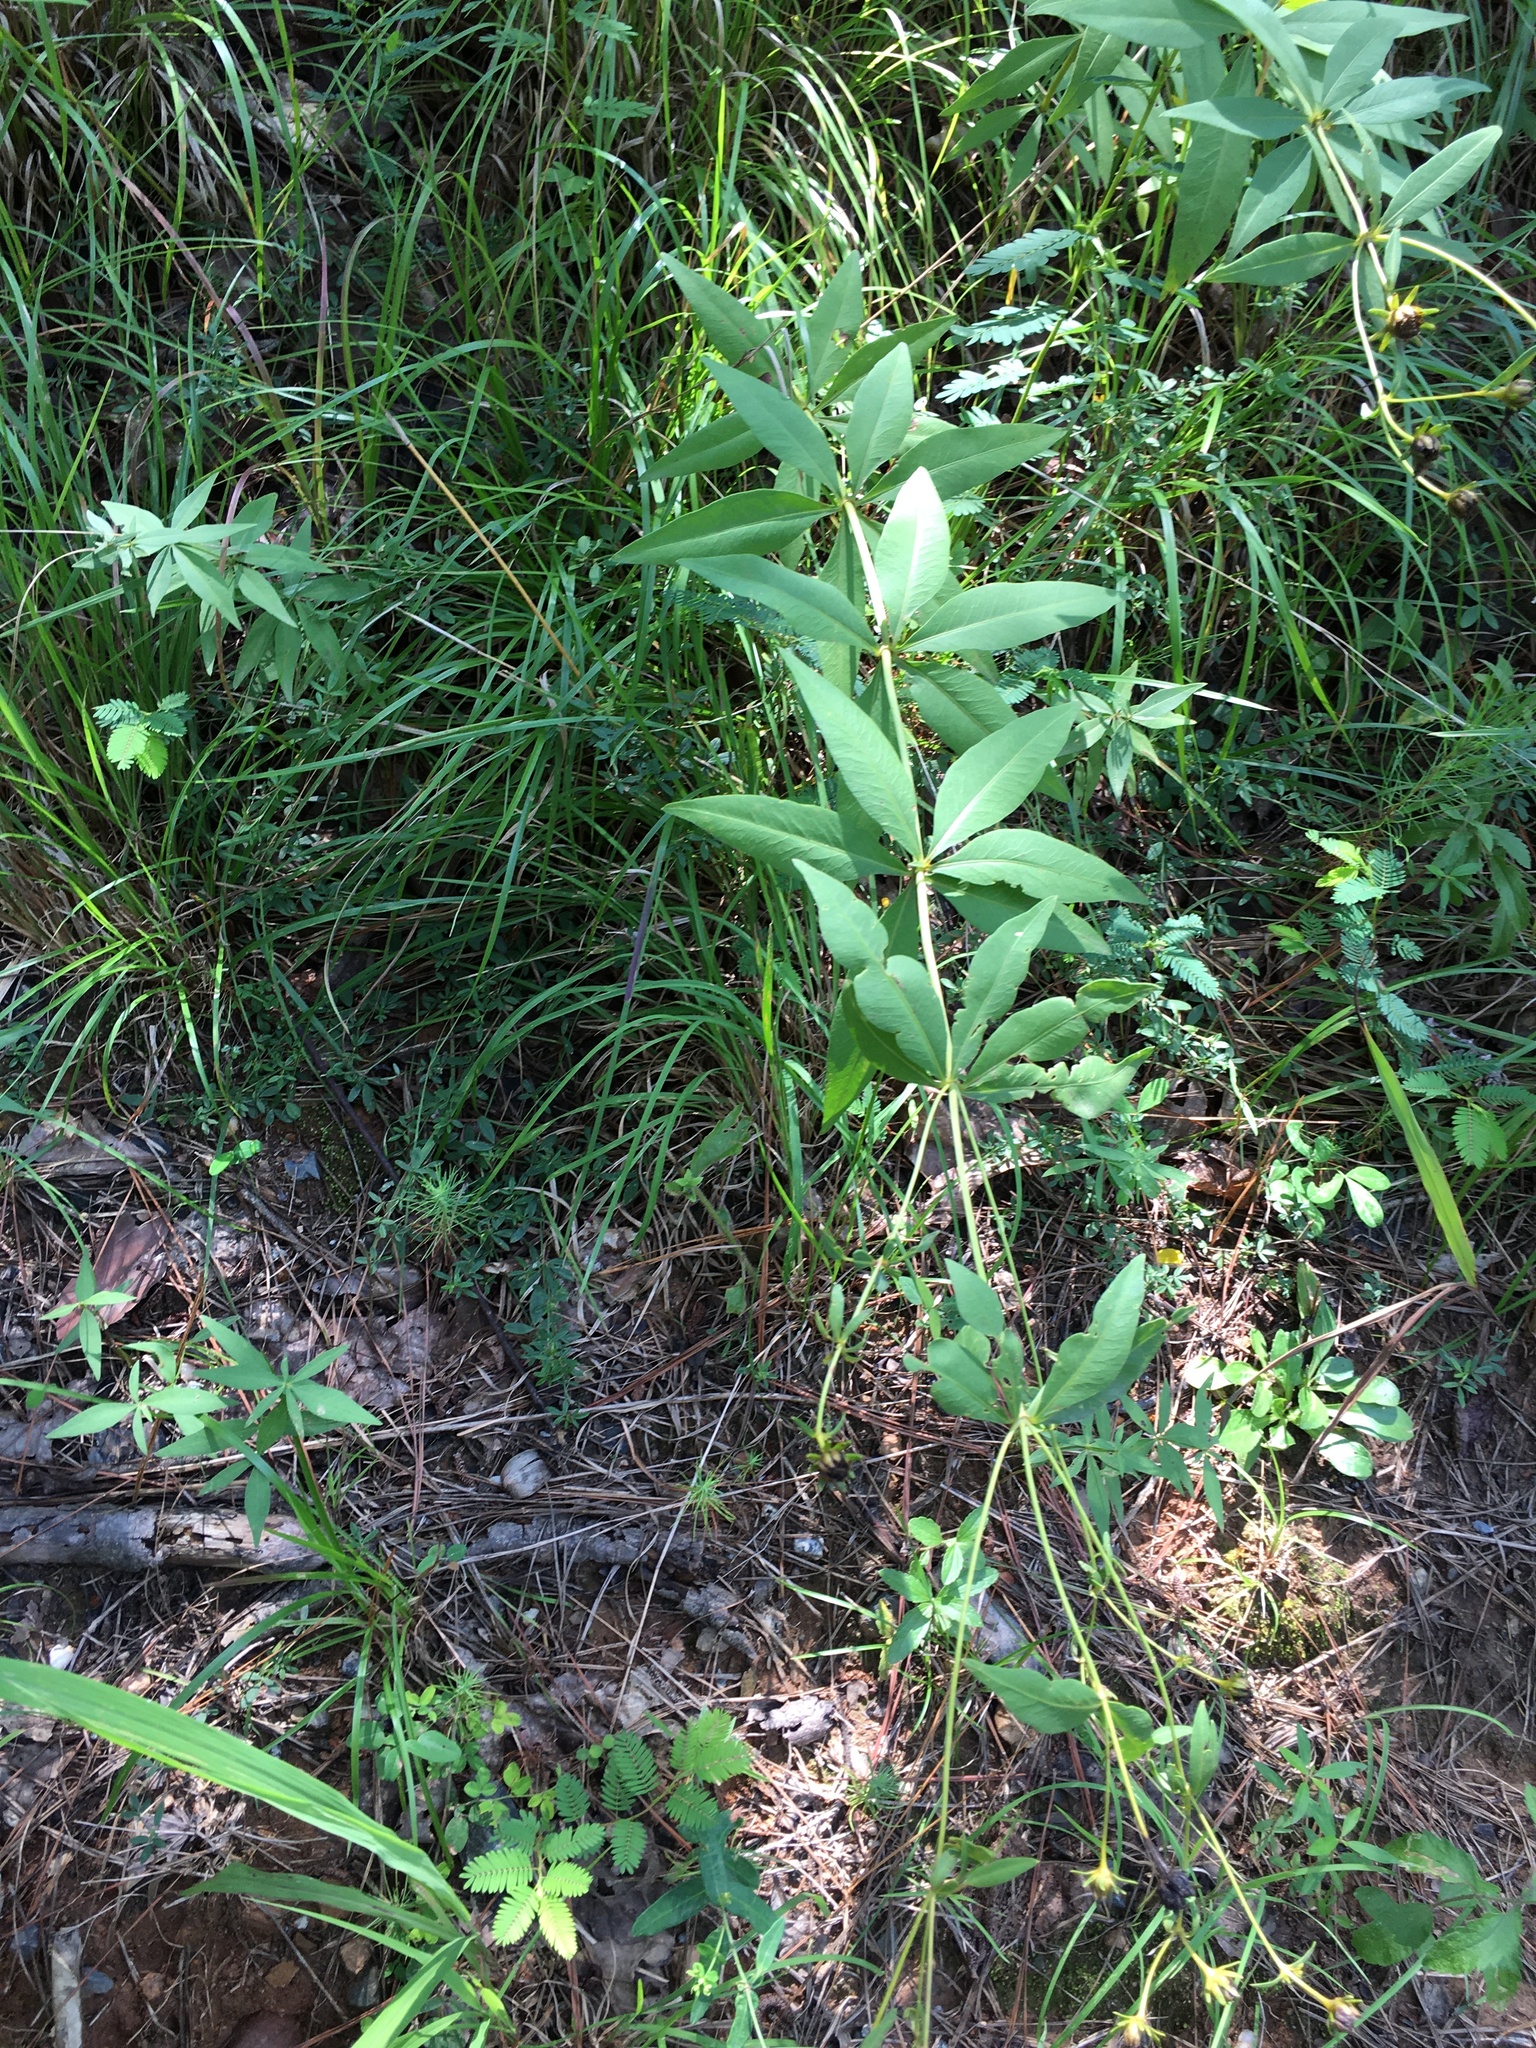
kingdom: Plantae
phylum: Tracheophyta
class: Magnoliopsida
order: Asterales
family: Asteraceae
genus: Coreopsis
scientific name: Coreopsis major
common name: Forest tickseed
